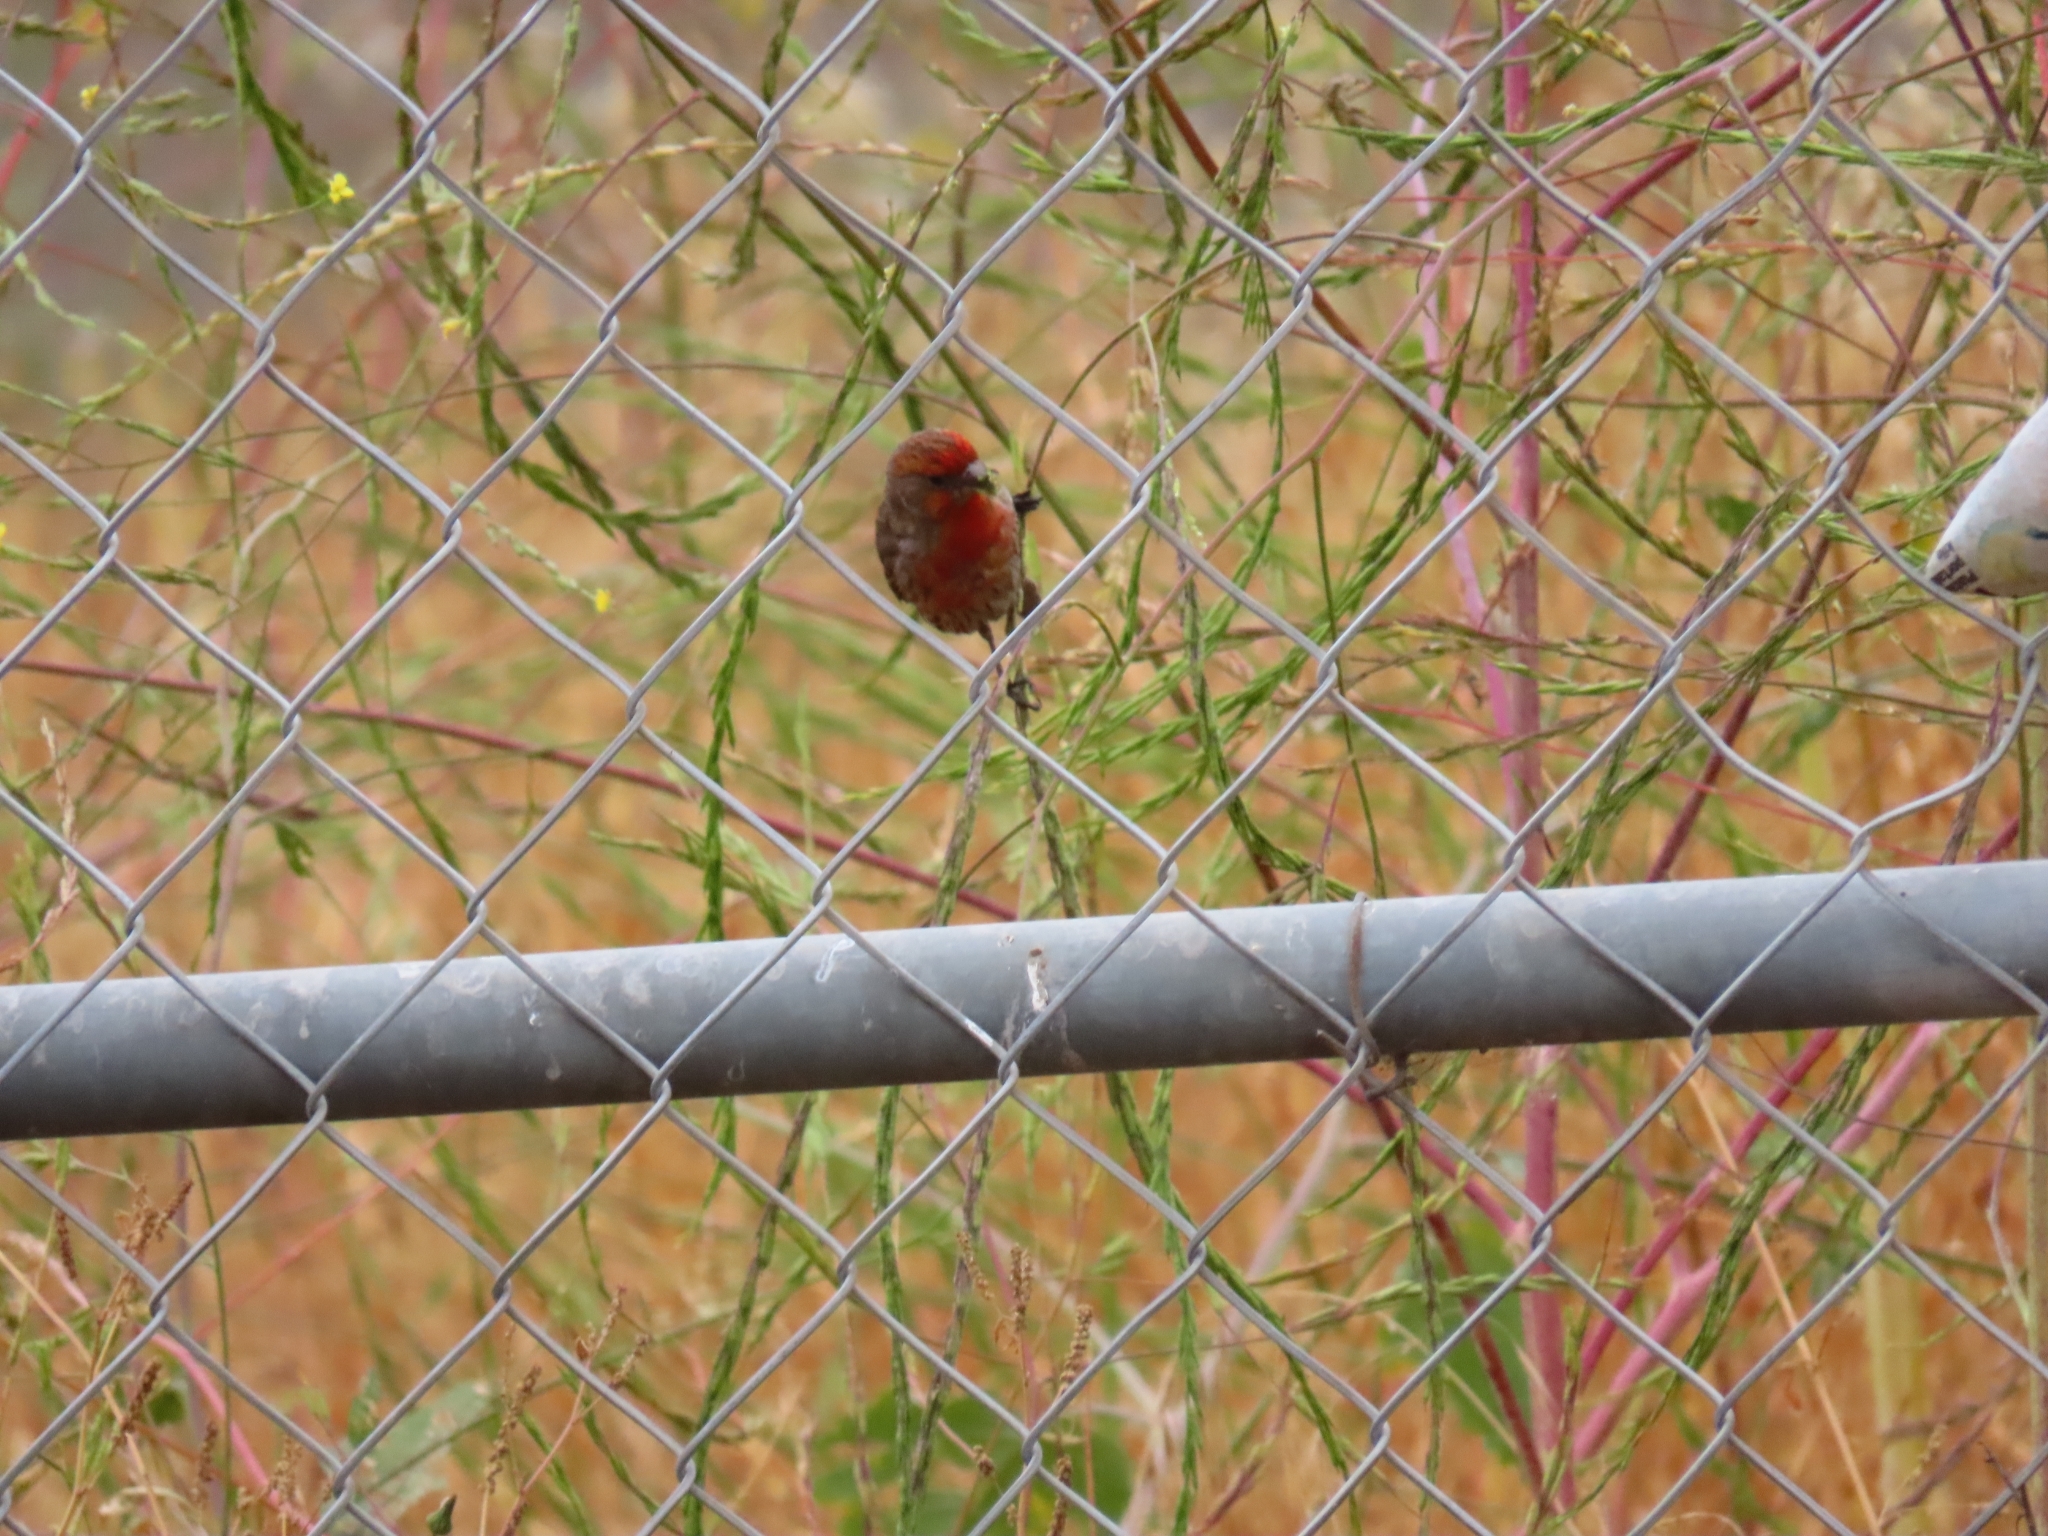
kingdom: Animalia
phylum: Chordata
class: Aves
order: Passeriformes
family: Fringillidae
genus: Haemorhous
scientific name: Haemorhous mexicanus
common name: House finch
